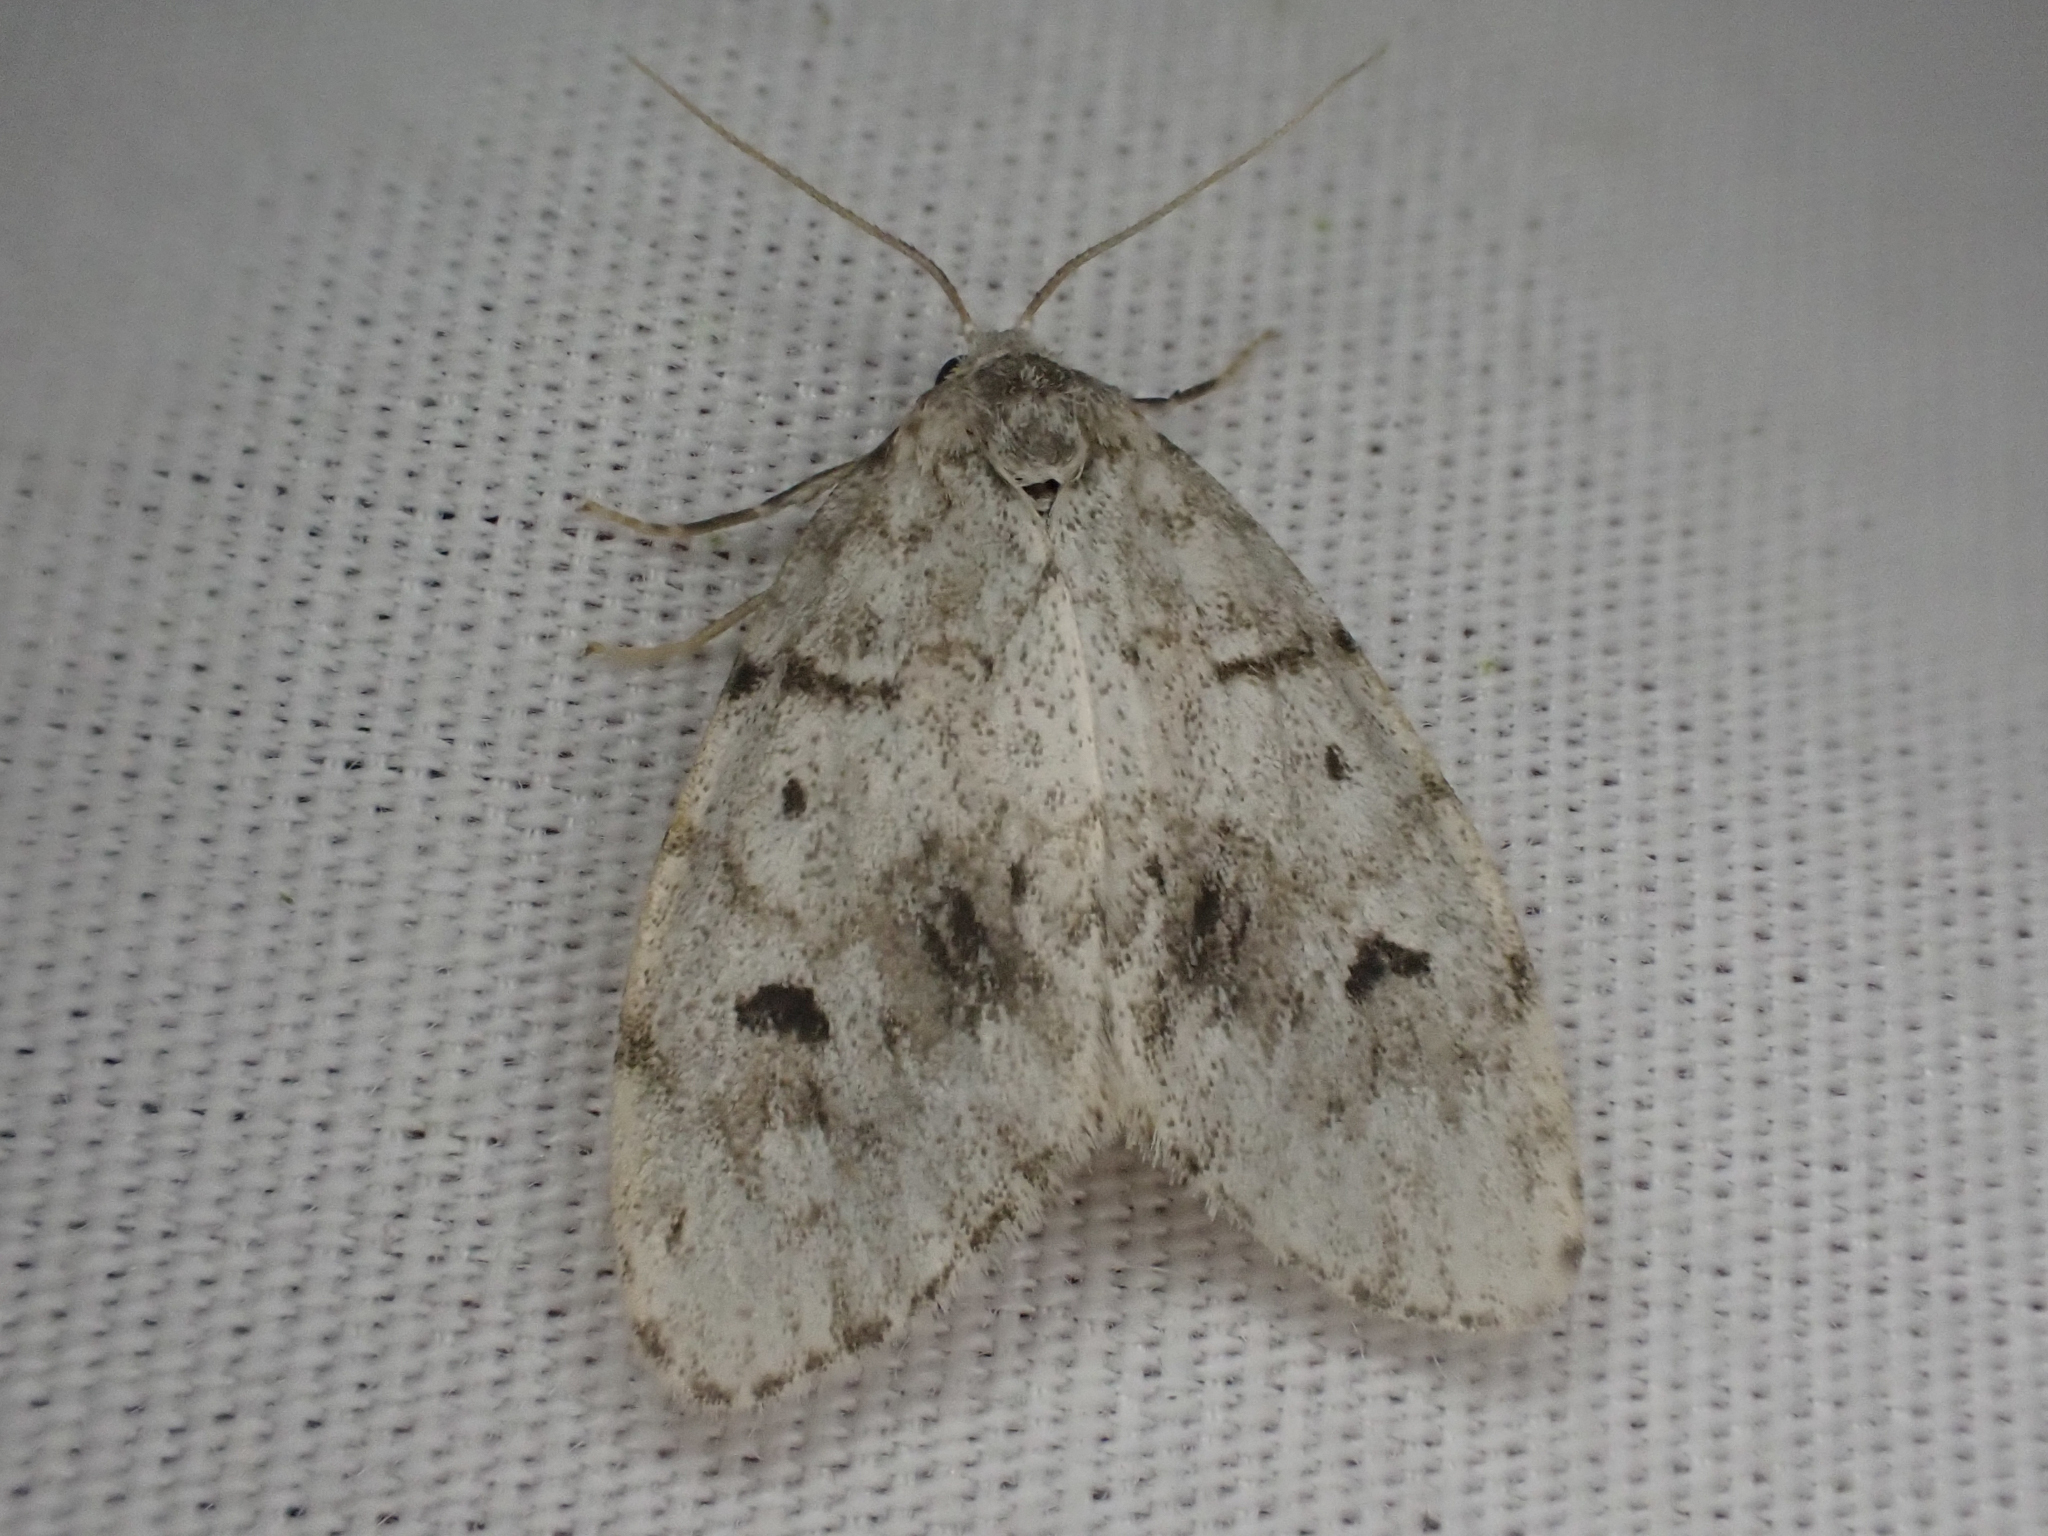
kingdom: Animalia
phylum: Arthropoda
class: Insecta
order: Lepidoptera
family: Erebidae
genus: Clemensia
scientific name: Clemensia umbrata
